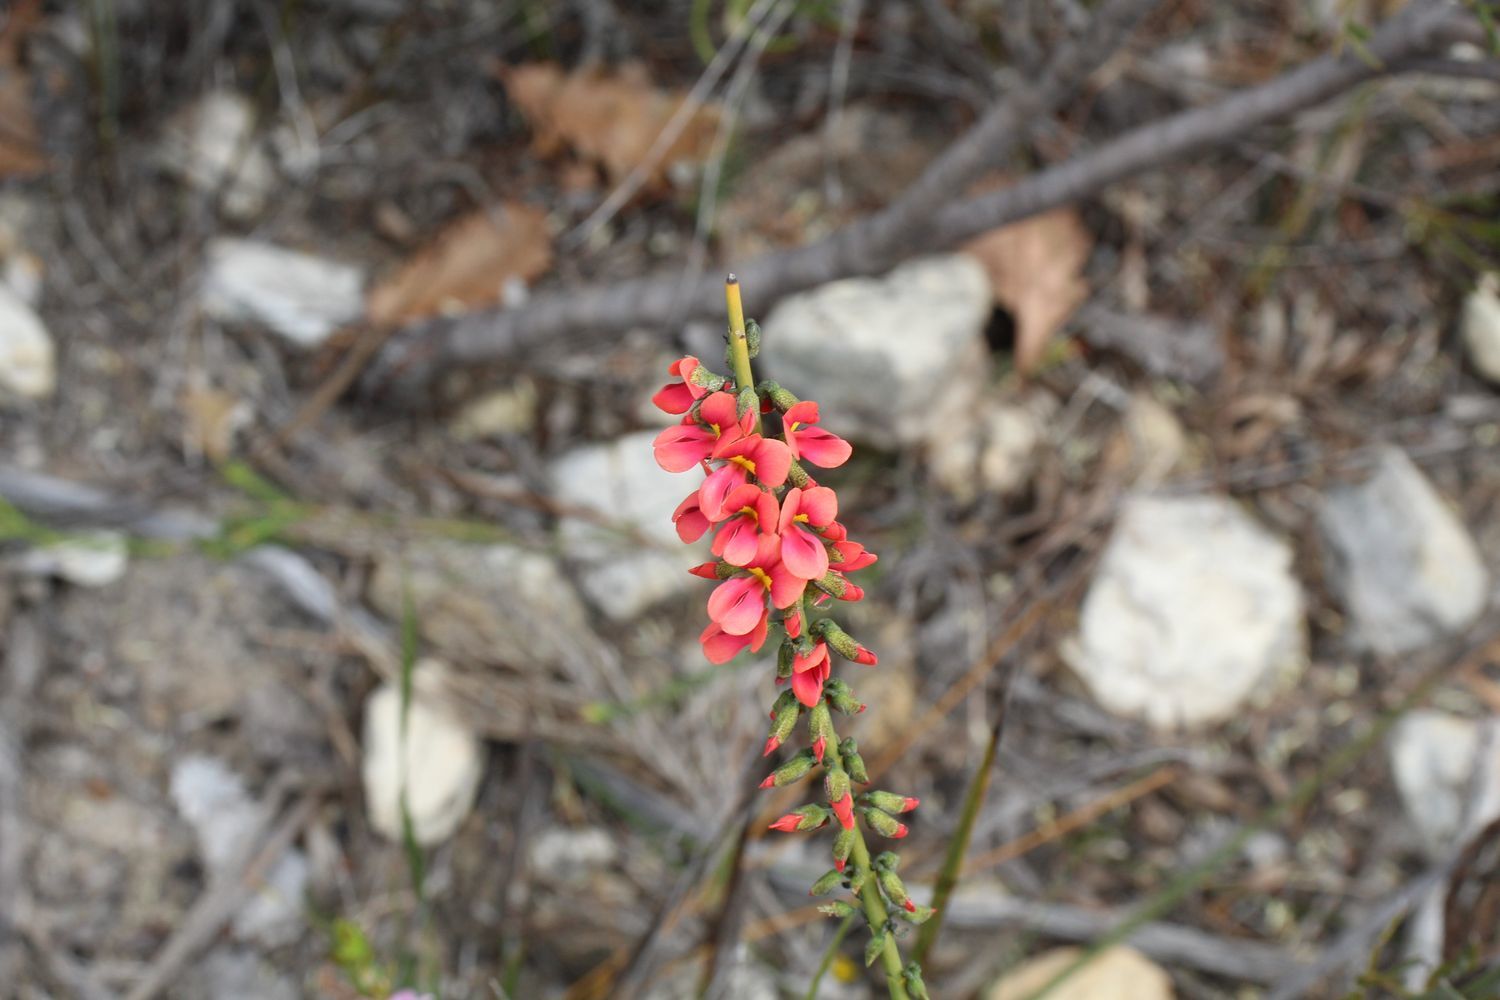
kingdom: Plantae
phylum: Tracheophyta
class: Magnoliopsida
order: Fabales
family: Fabaceae
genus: Sphaerolobium
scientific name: Sphaerolobium drummondii
